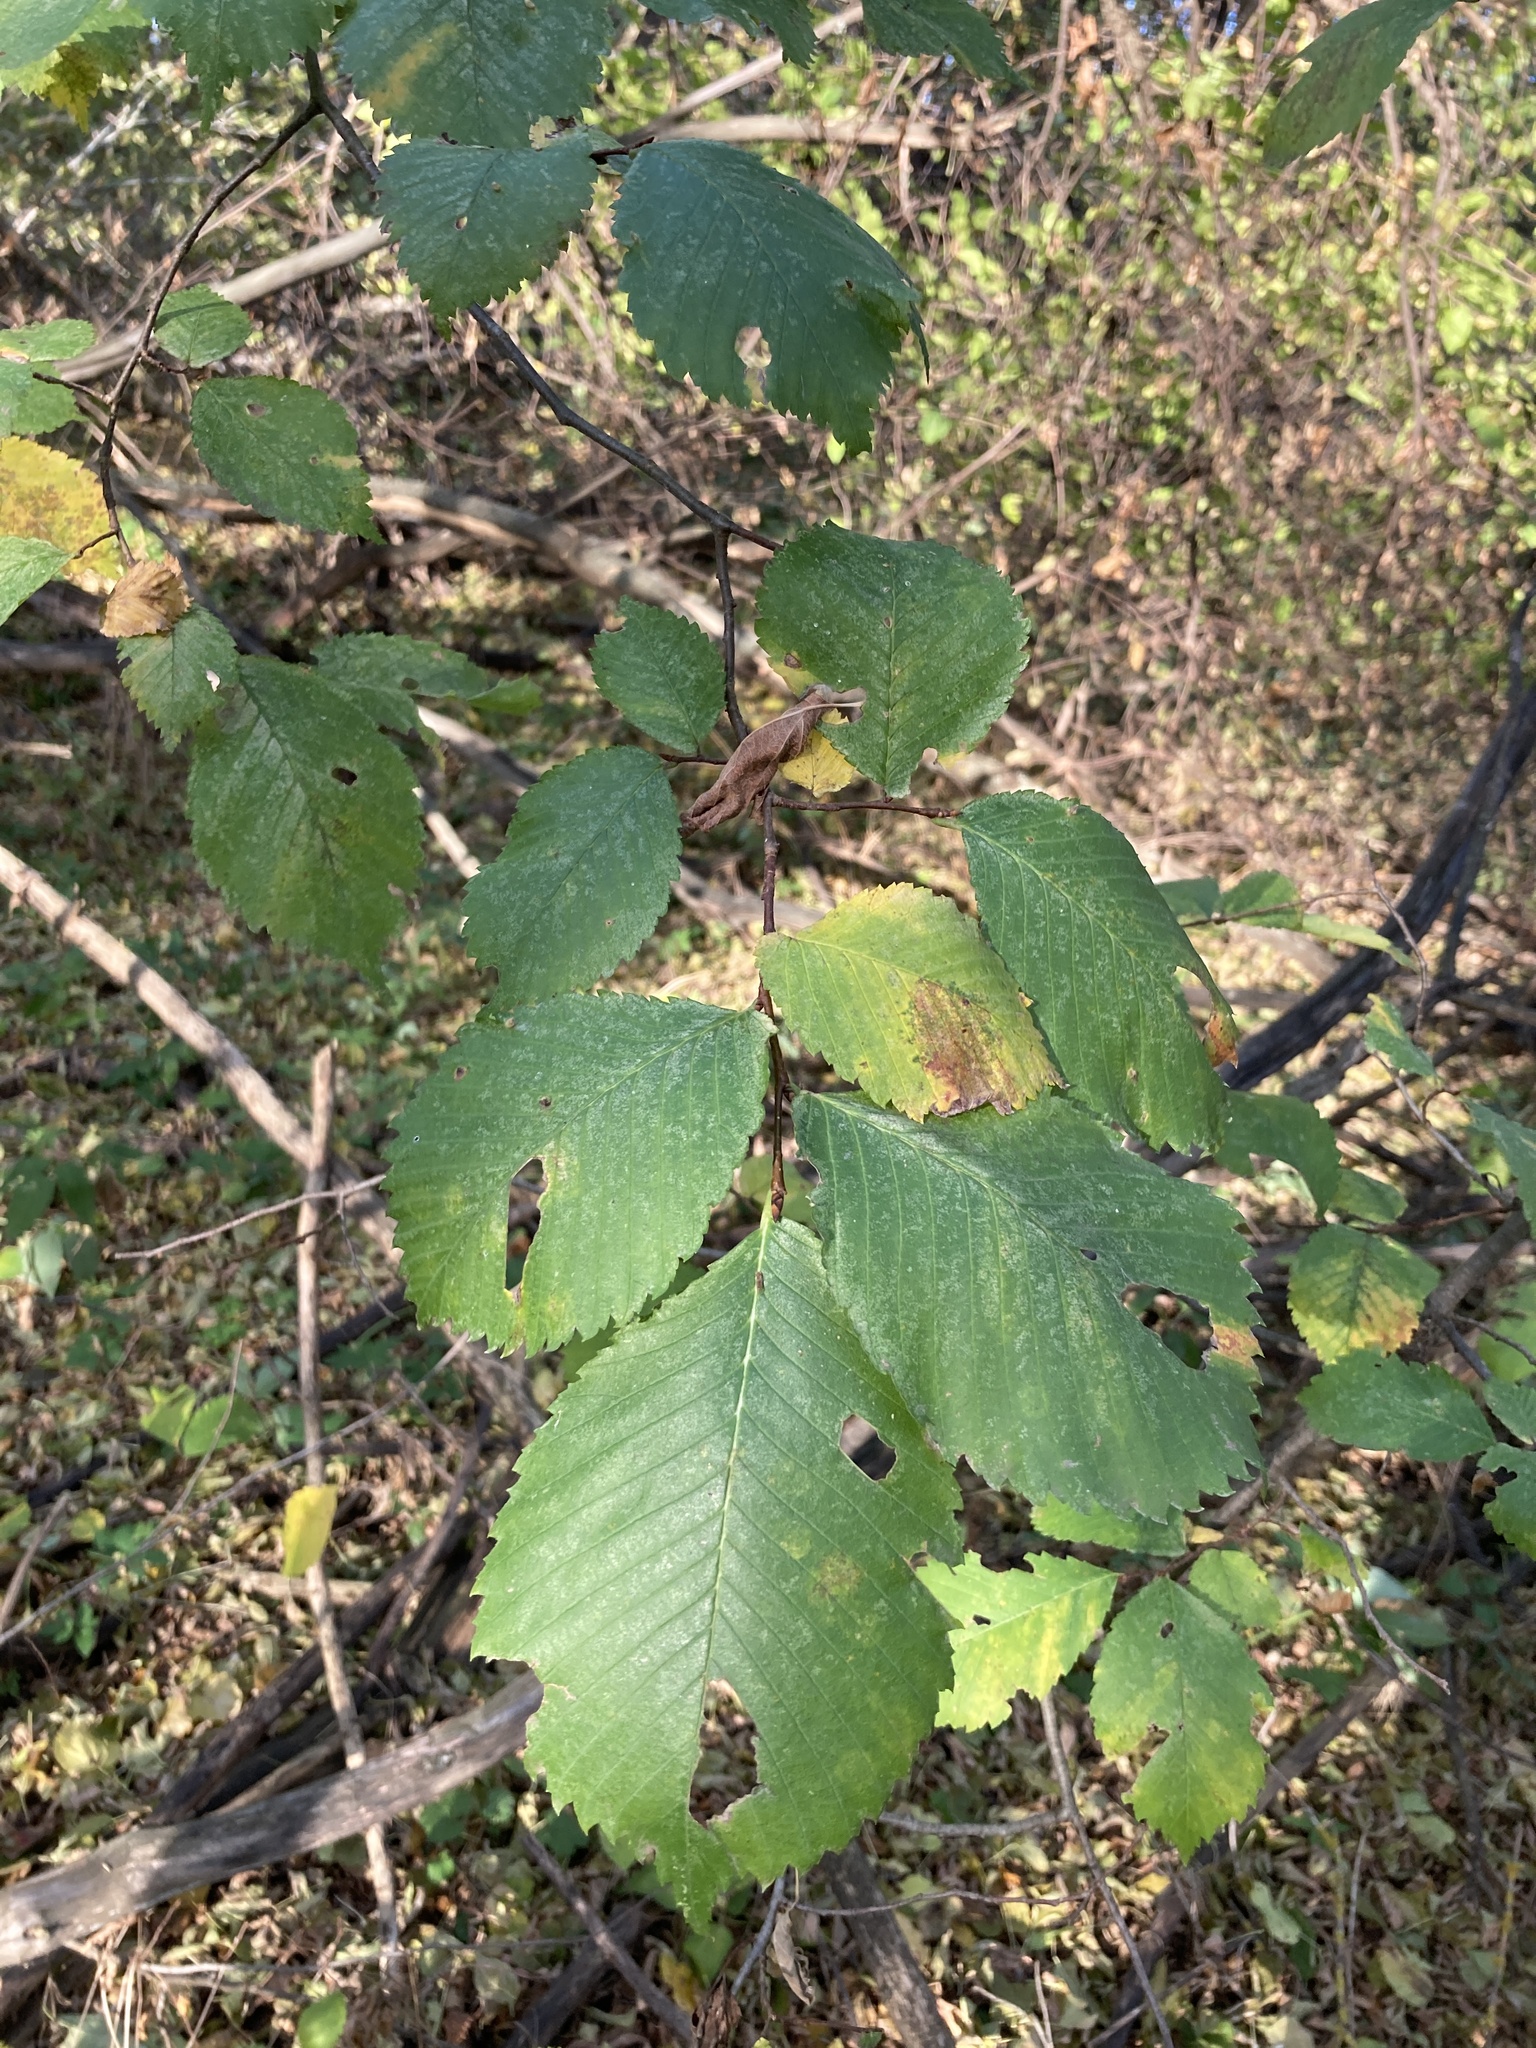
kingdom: Plantae
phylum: Tracheophyta
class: Magnoliopsida
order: Rosales
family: Ulmaceae
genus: Ulmus
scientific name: Ulmus laevis
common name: European white-elm
